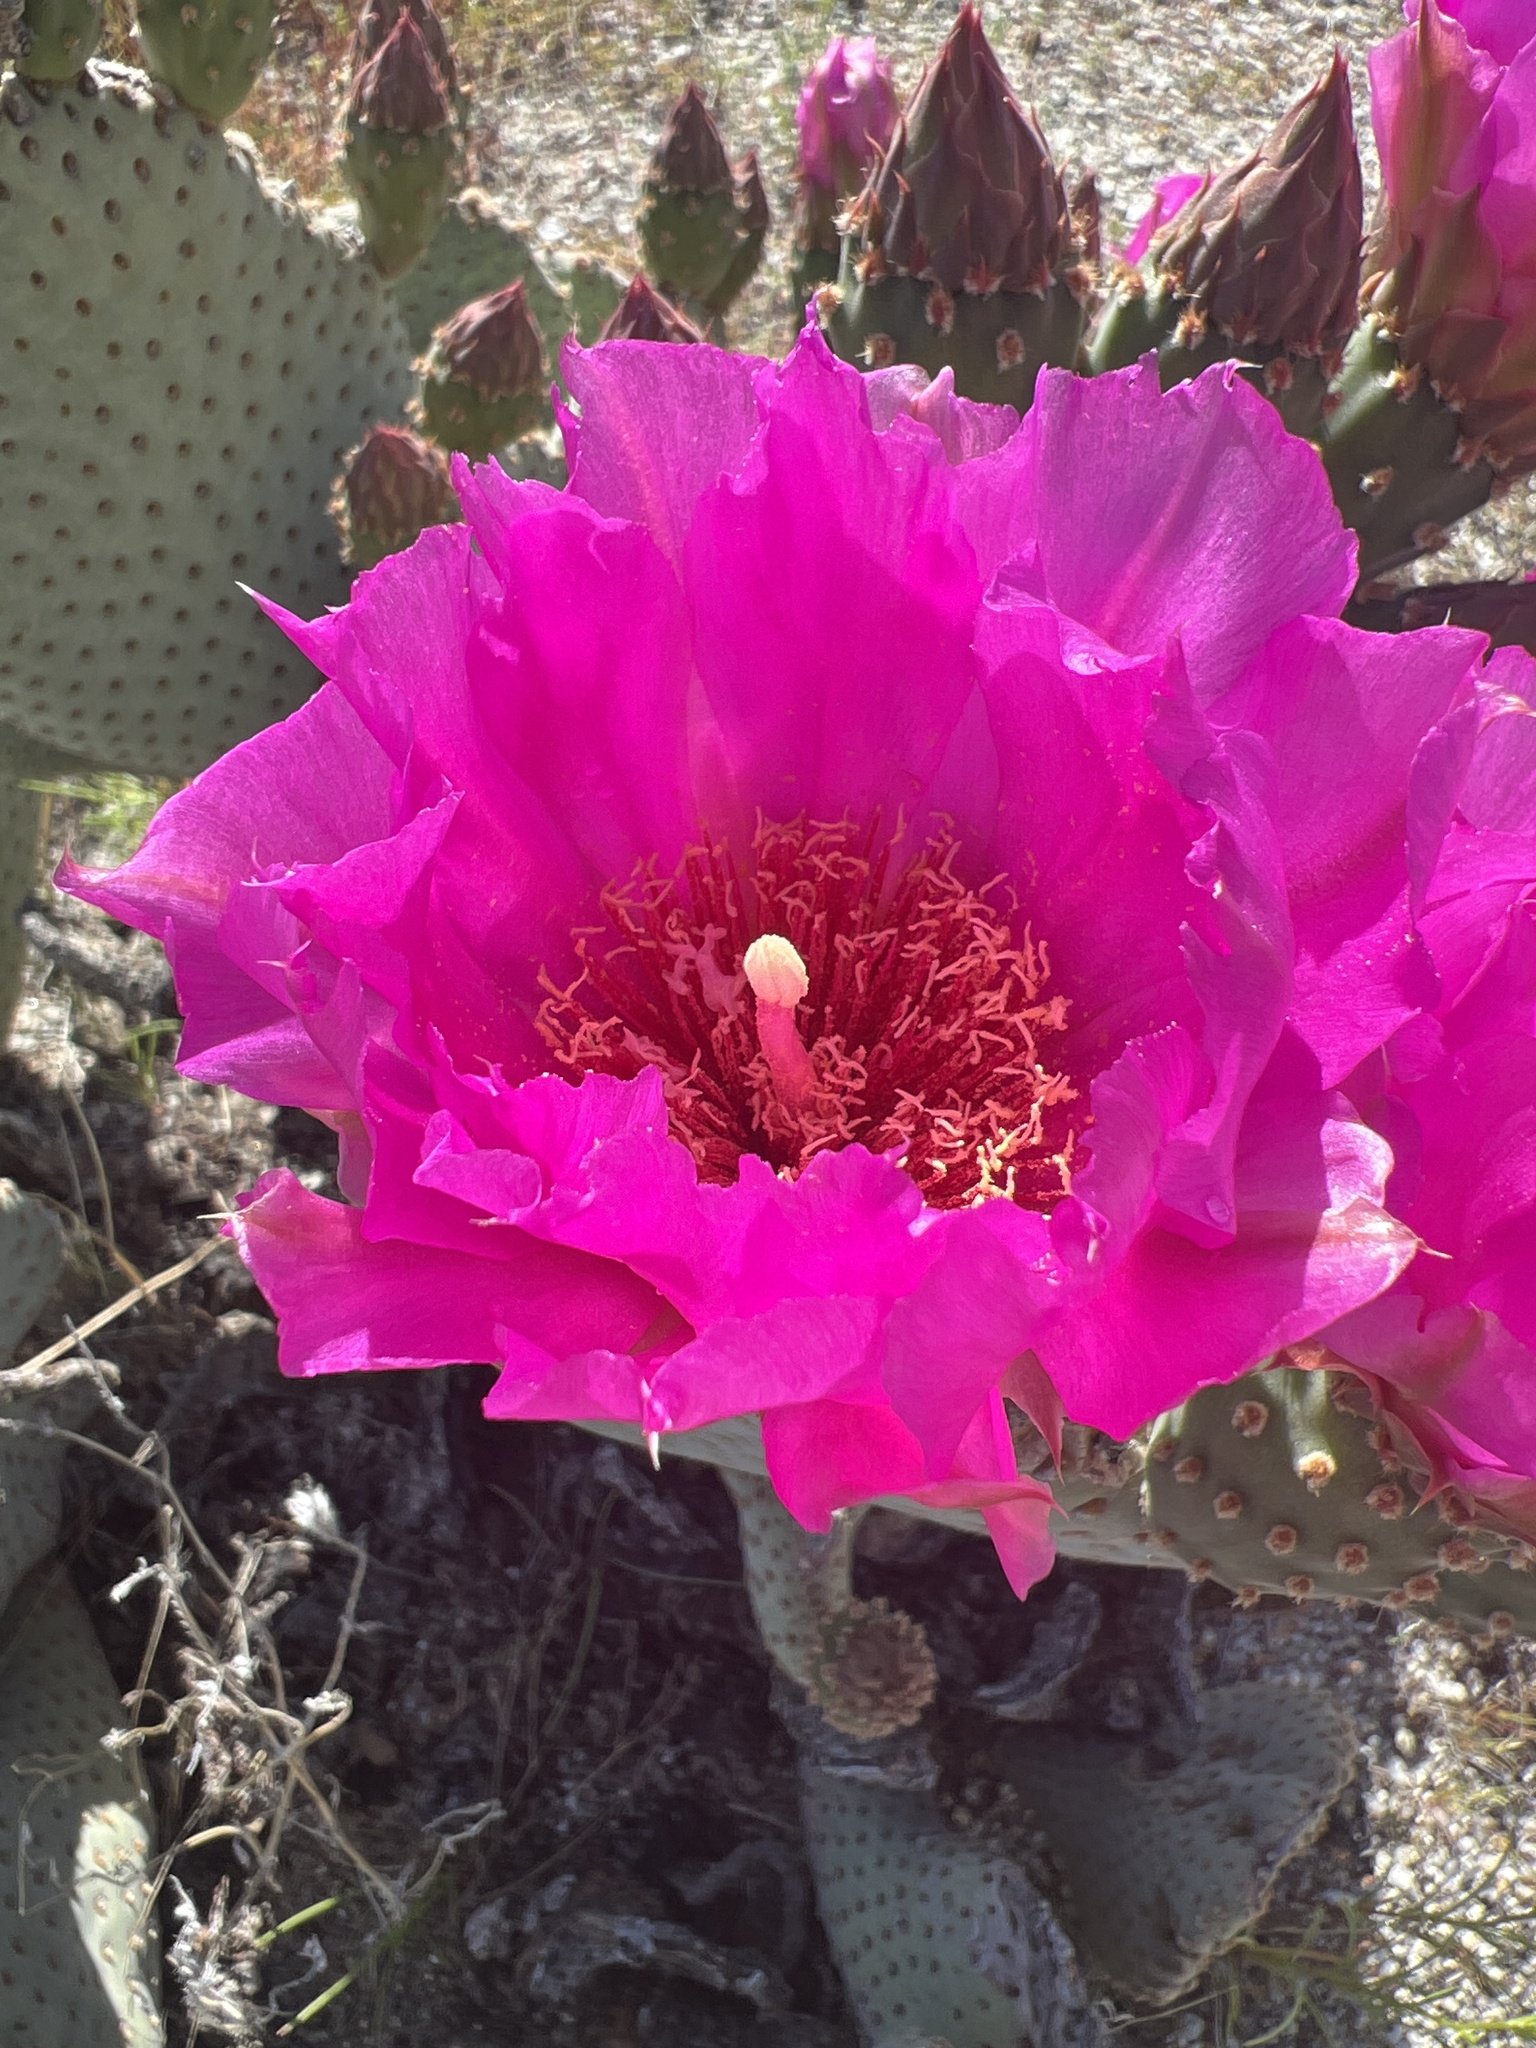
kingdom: Plantae
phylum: Tracheophyta
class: Magnoliopsida
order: Caryophyllales
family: Cactaceae
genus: Opuntia
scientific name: Opuntia basilaris
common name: Beavertail prickly-pear
